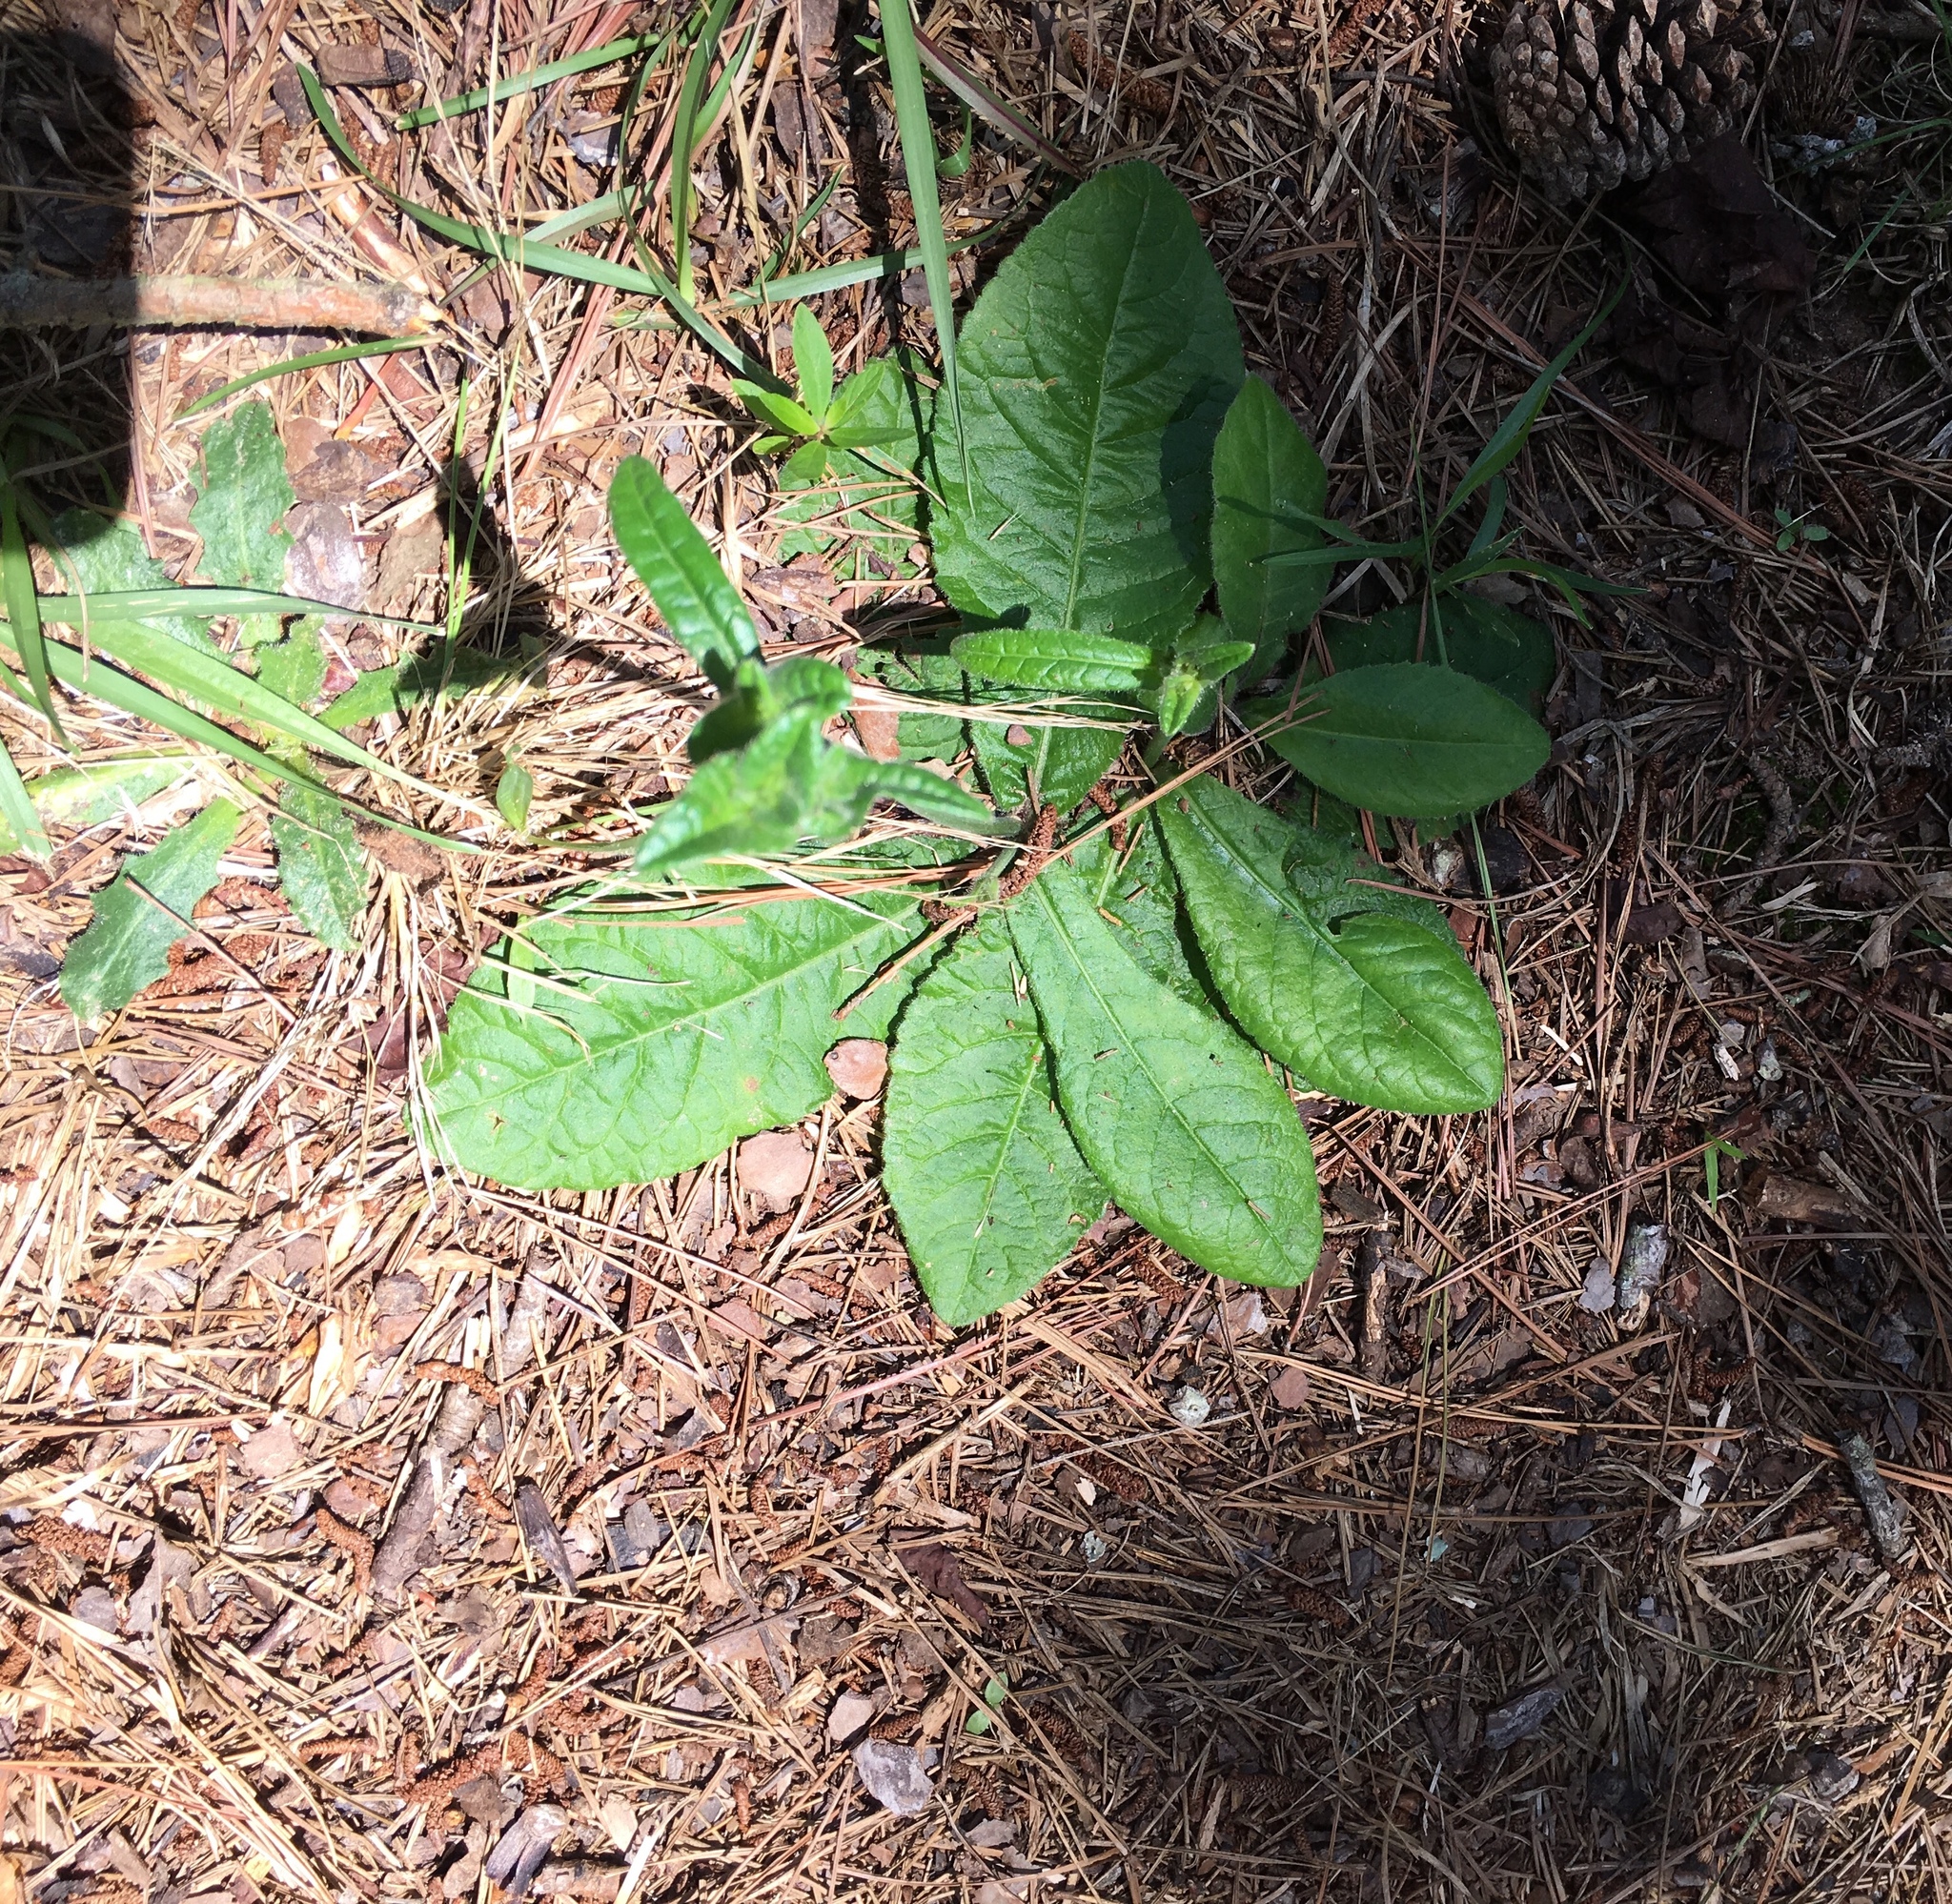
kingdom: Plantae
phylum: Tracheophyta
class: Magnoliopsida
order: Asterales
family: Asteraceae
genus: Elephantopus
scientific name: Elephantopus tomentosus
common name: Tobacco-weed
